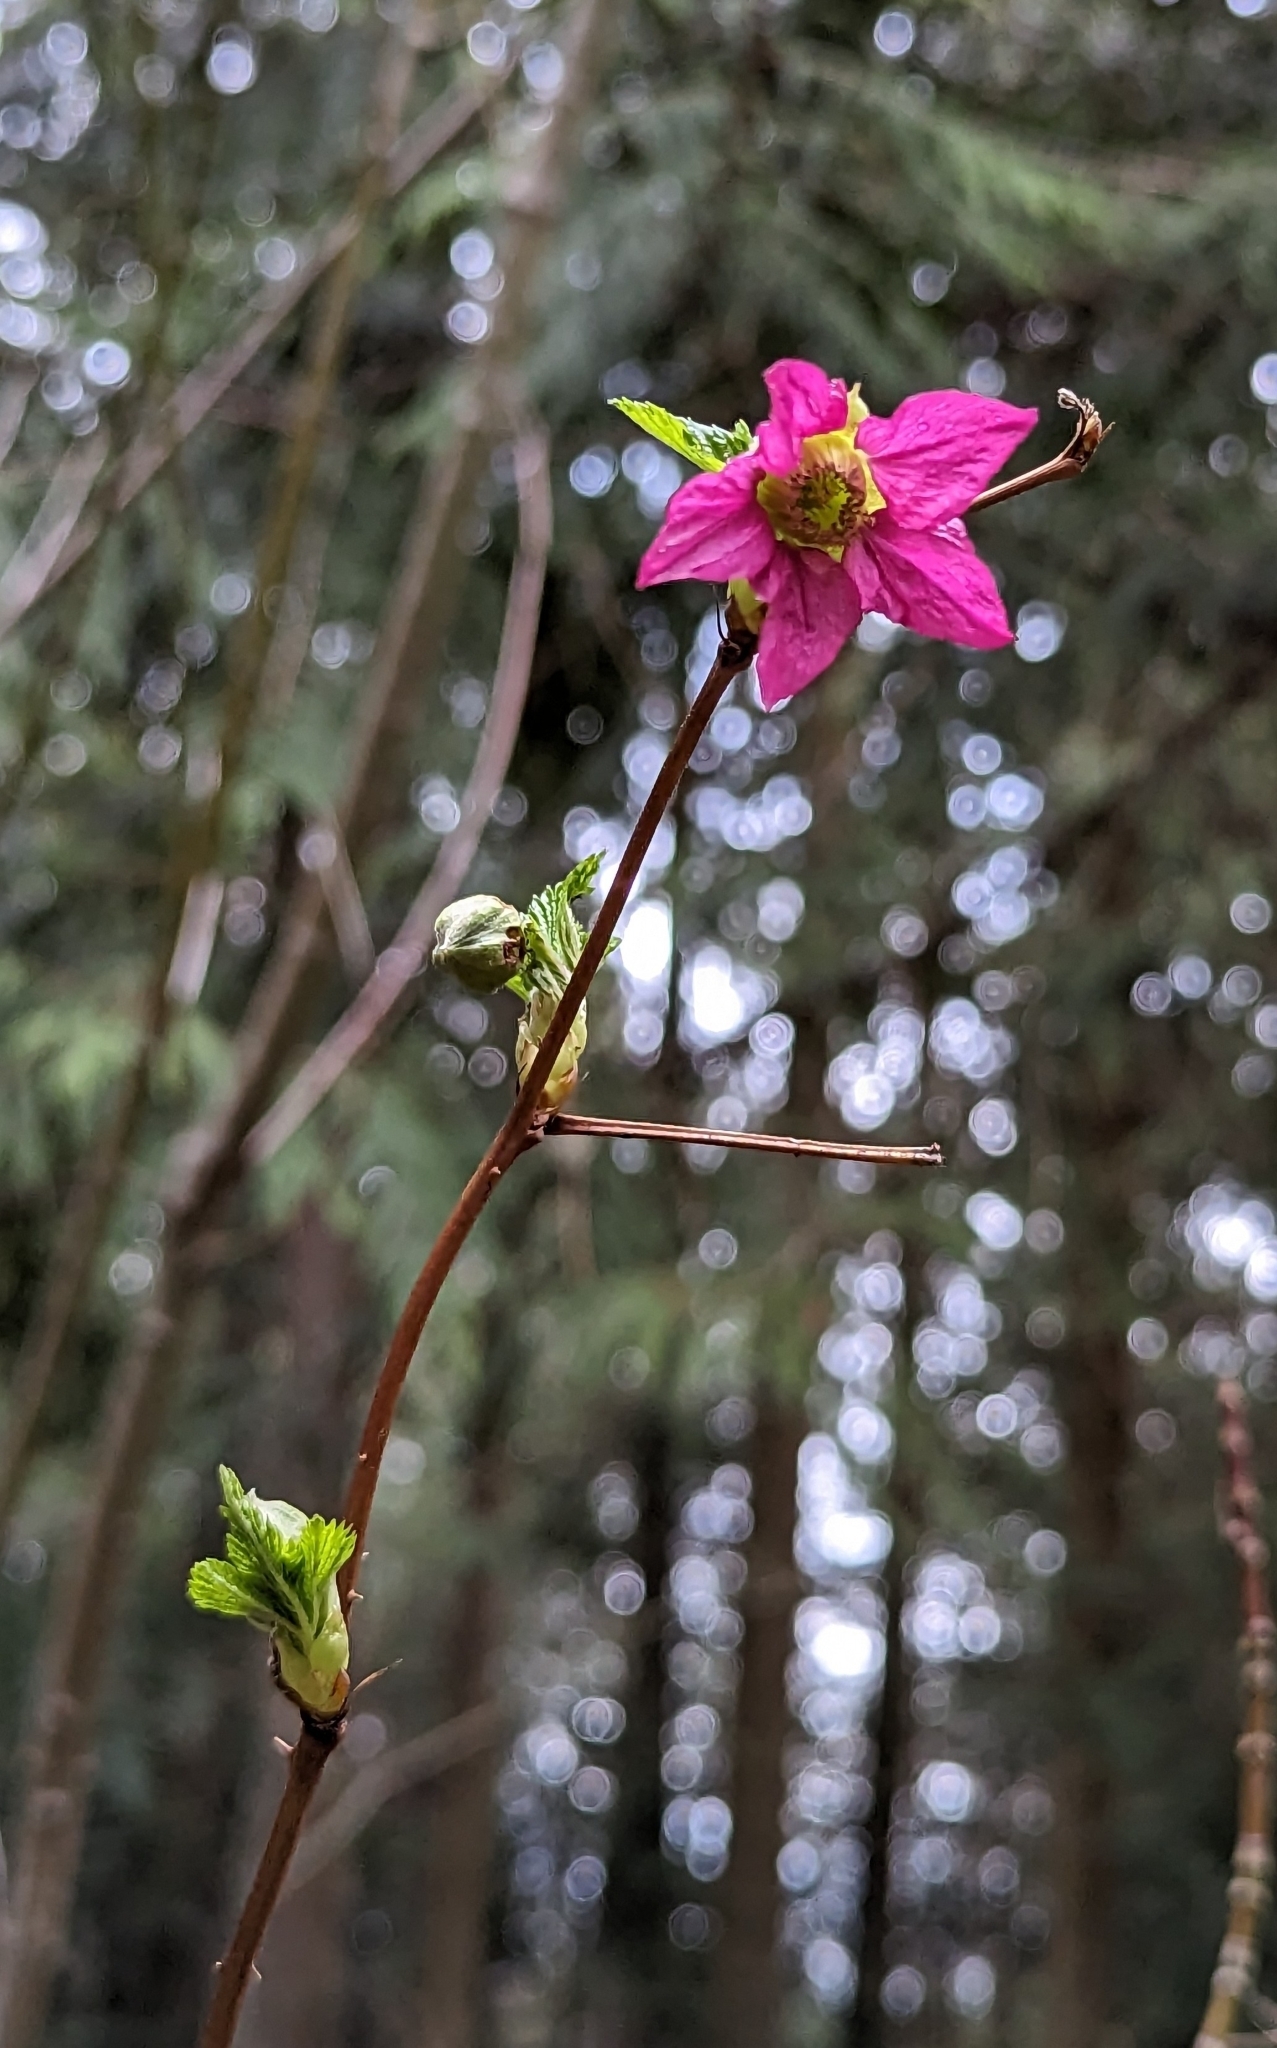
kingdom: Plantae
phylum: Tracheophyta
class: Magnoliopsida
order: Rosales
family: Rosaceae
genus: Rubus
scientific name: Rubus spectabilis
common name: Salmonberry
